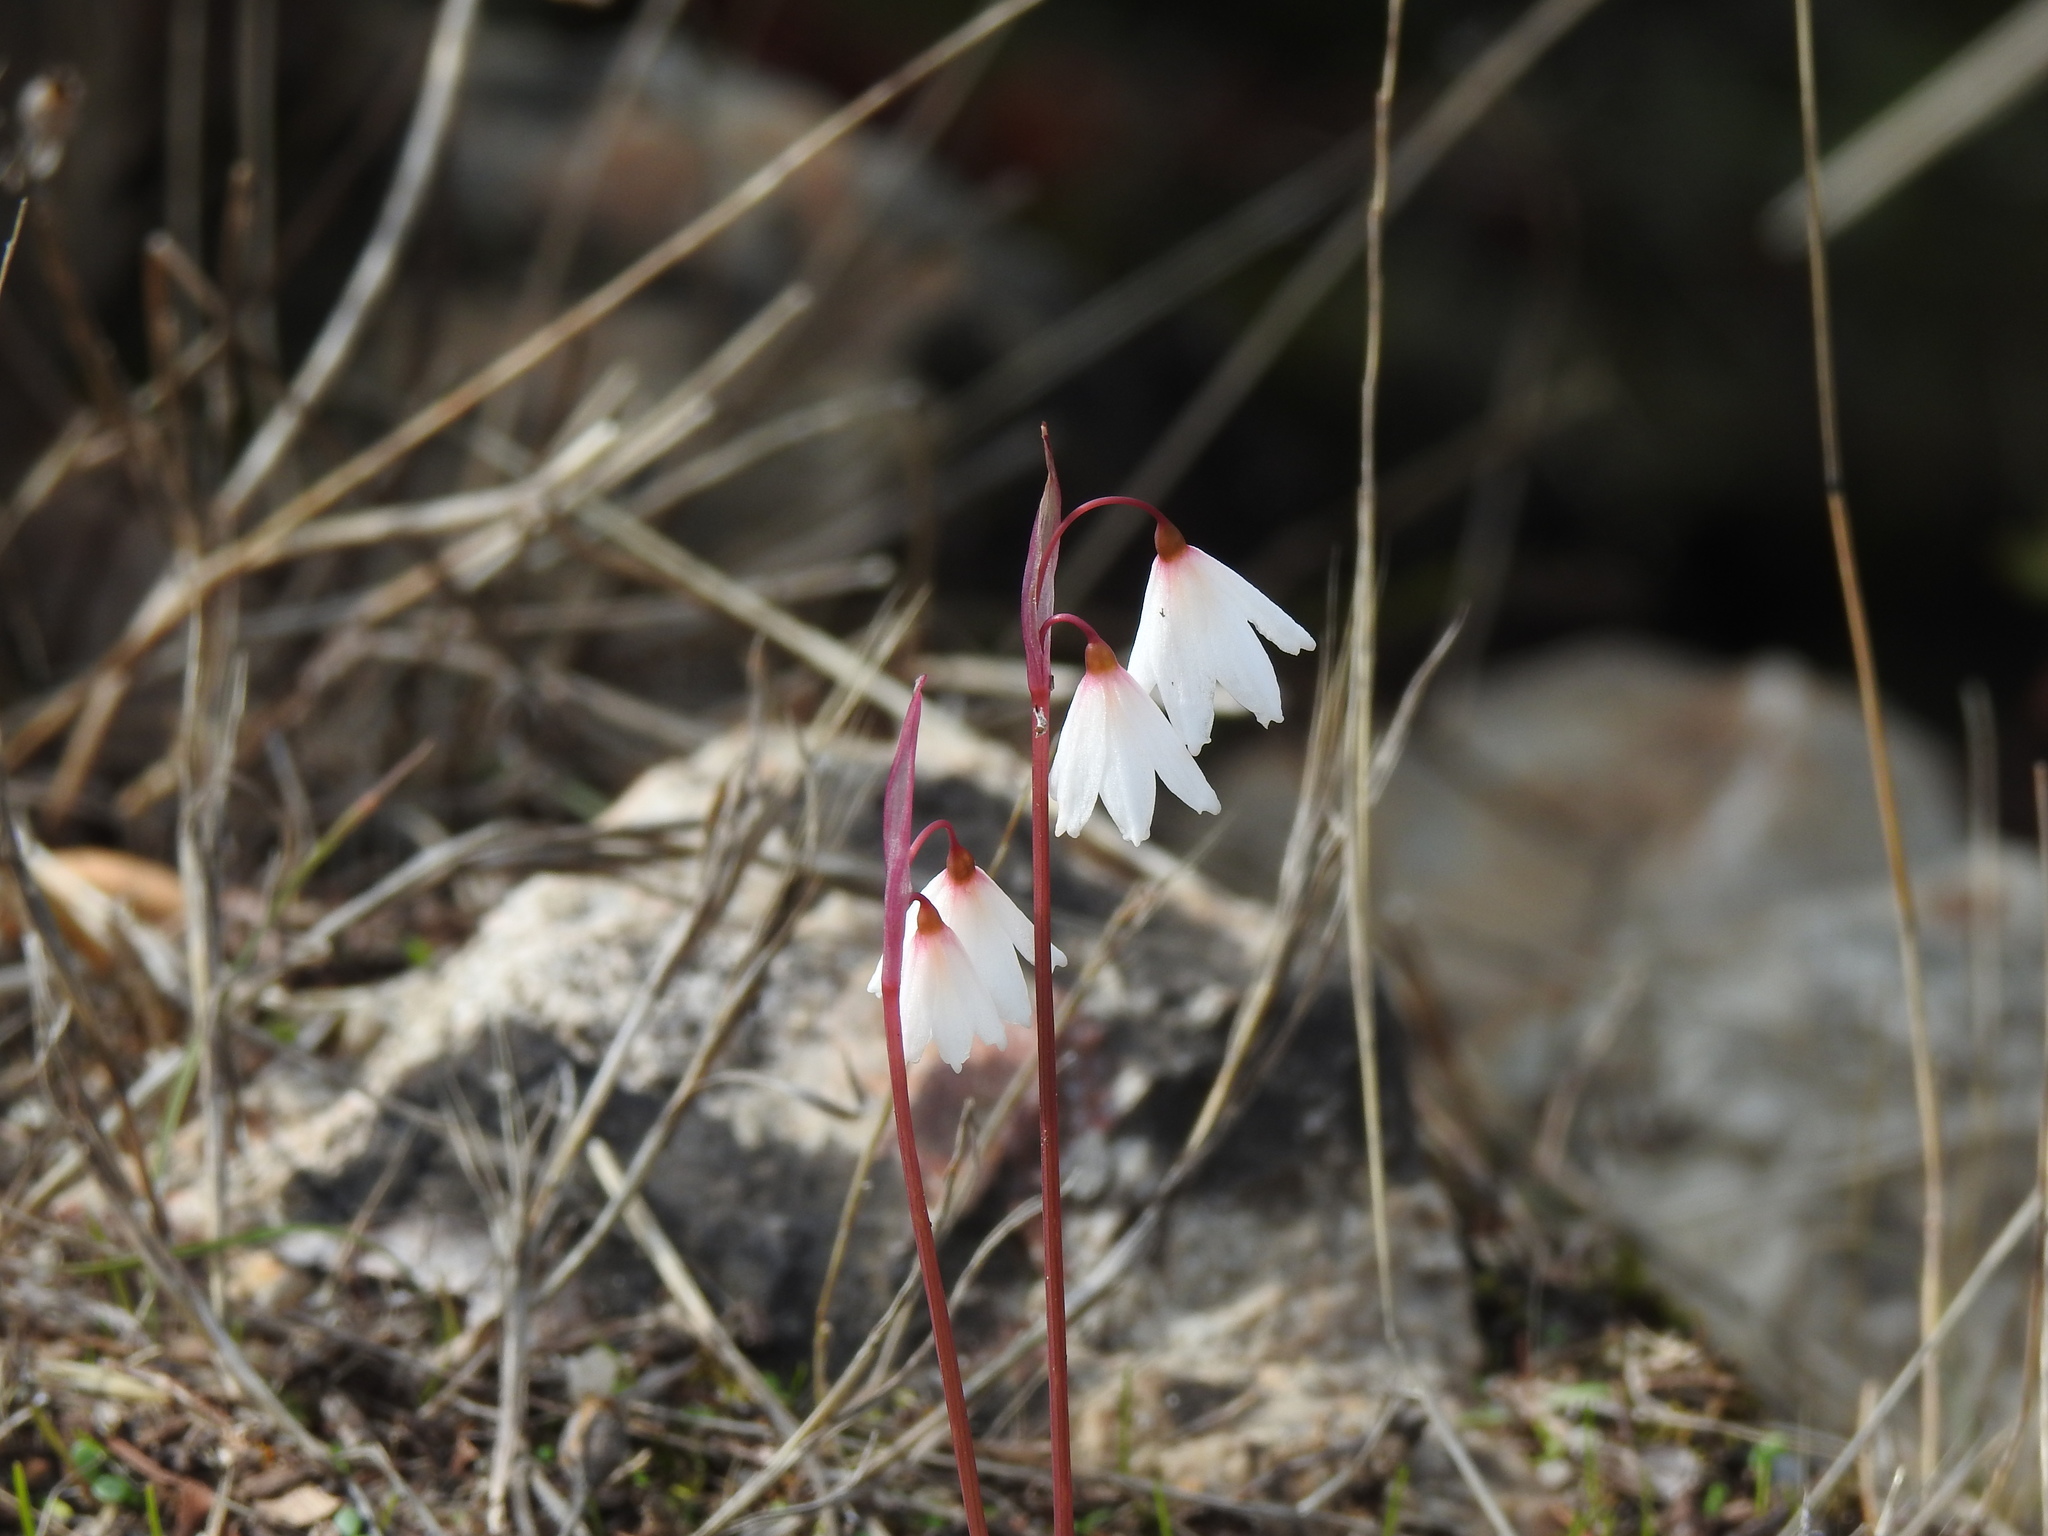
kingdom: Plantae
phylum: Tracheophyta
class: Liliopsida
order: Asparagales
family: Amaryllidaceae
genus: Acis
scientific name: Acis autumnalis
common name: Autumn snowflake
